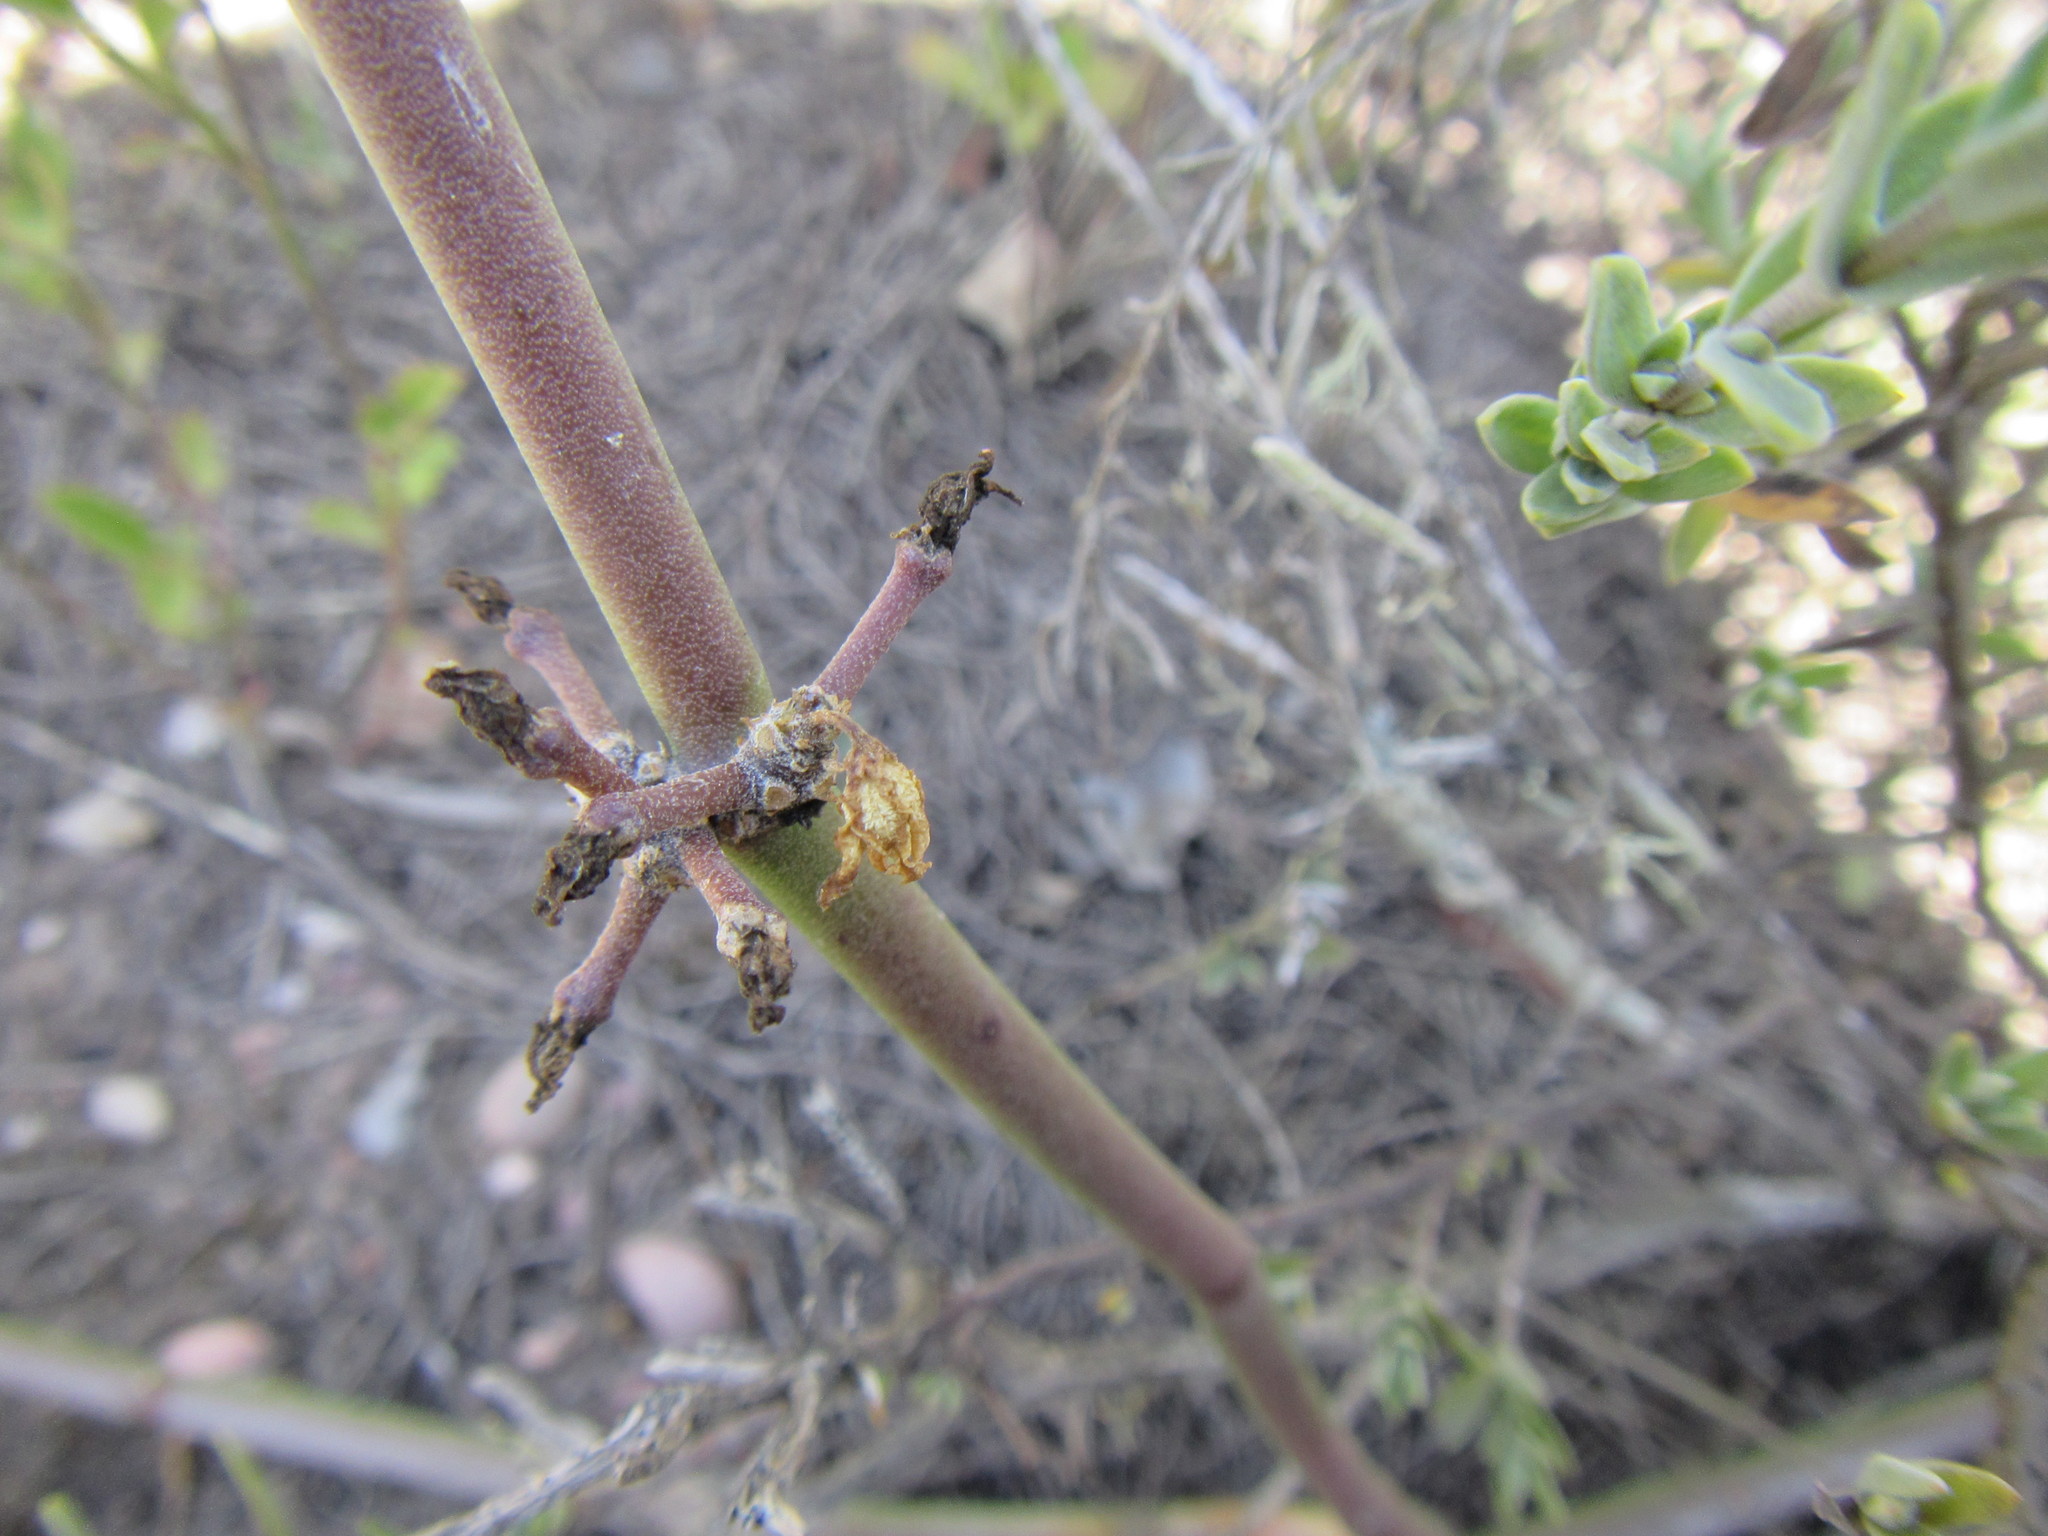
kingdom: Plantae
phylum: Tracheophyta
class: Magnoliopsida
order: Gentianales
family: Apocynaceae
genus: Cynanchum
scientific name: Cynanchum viminale
